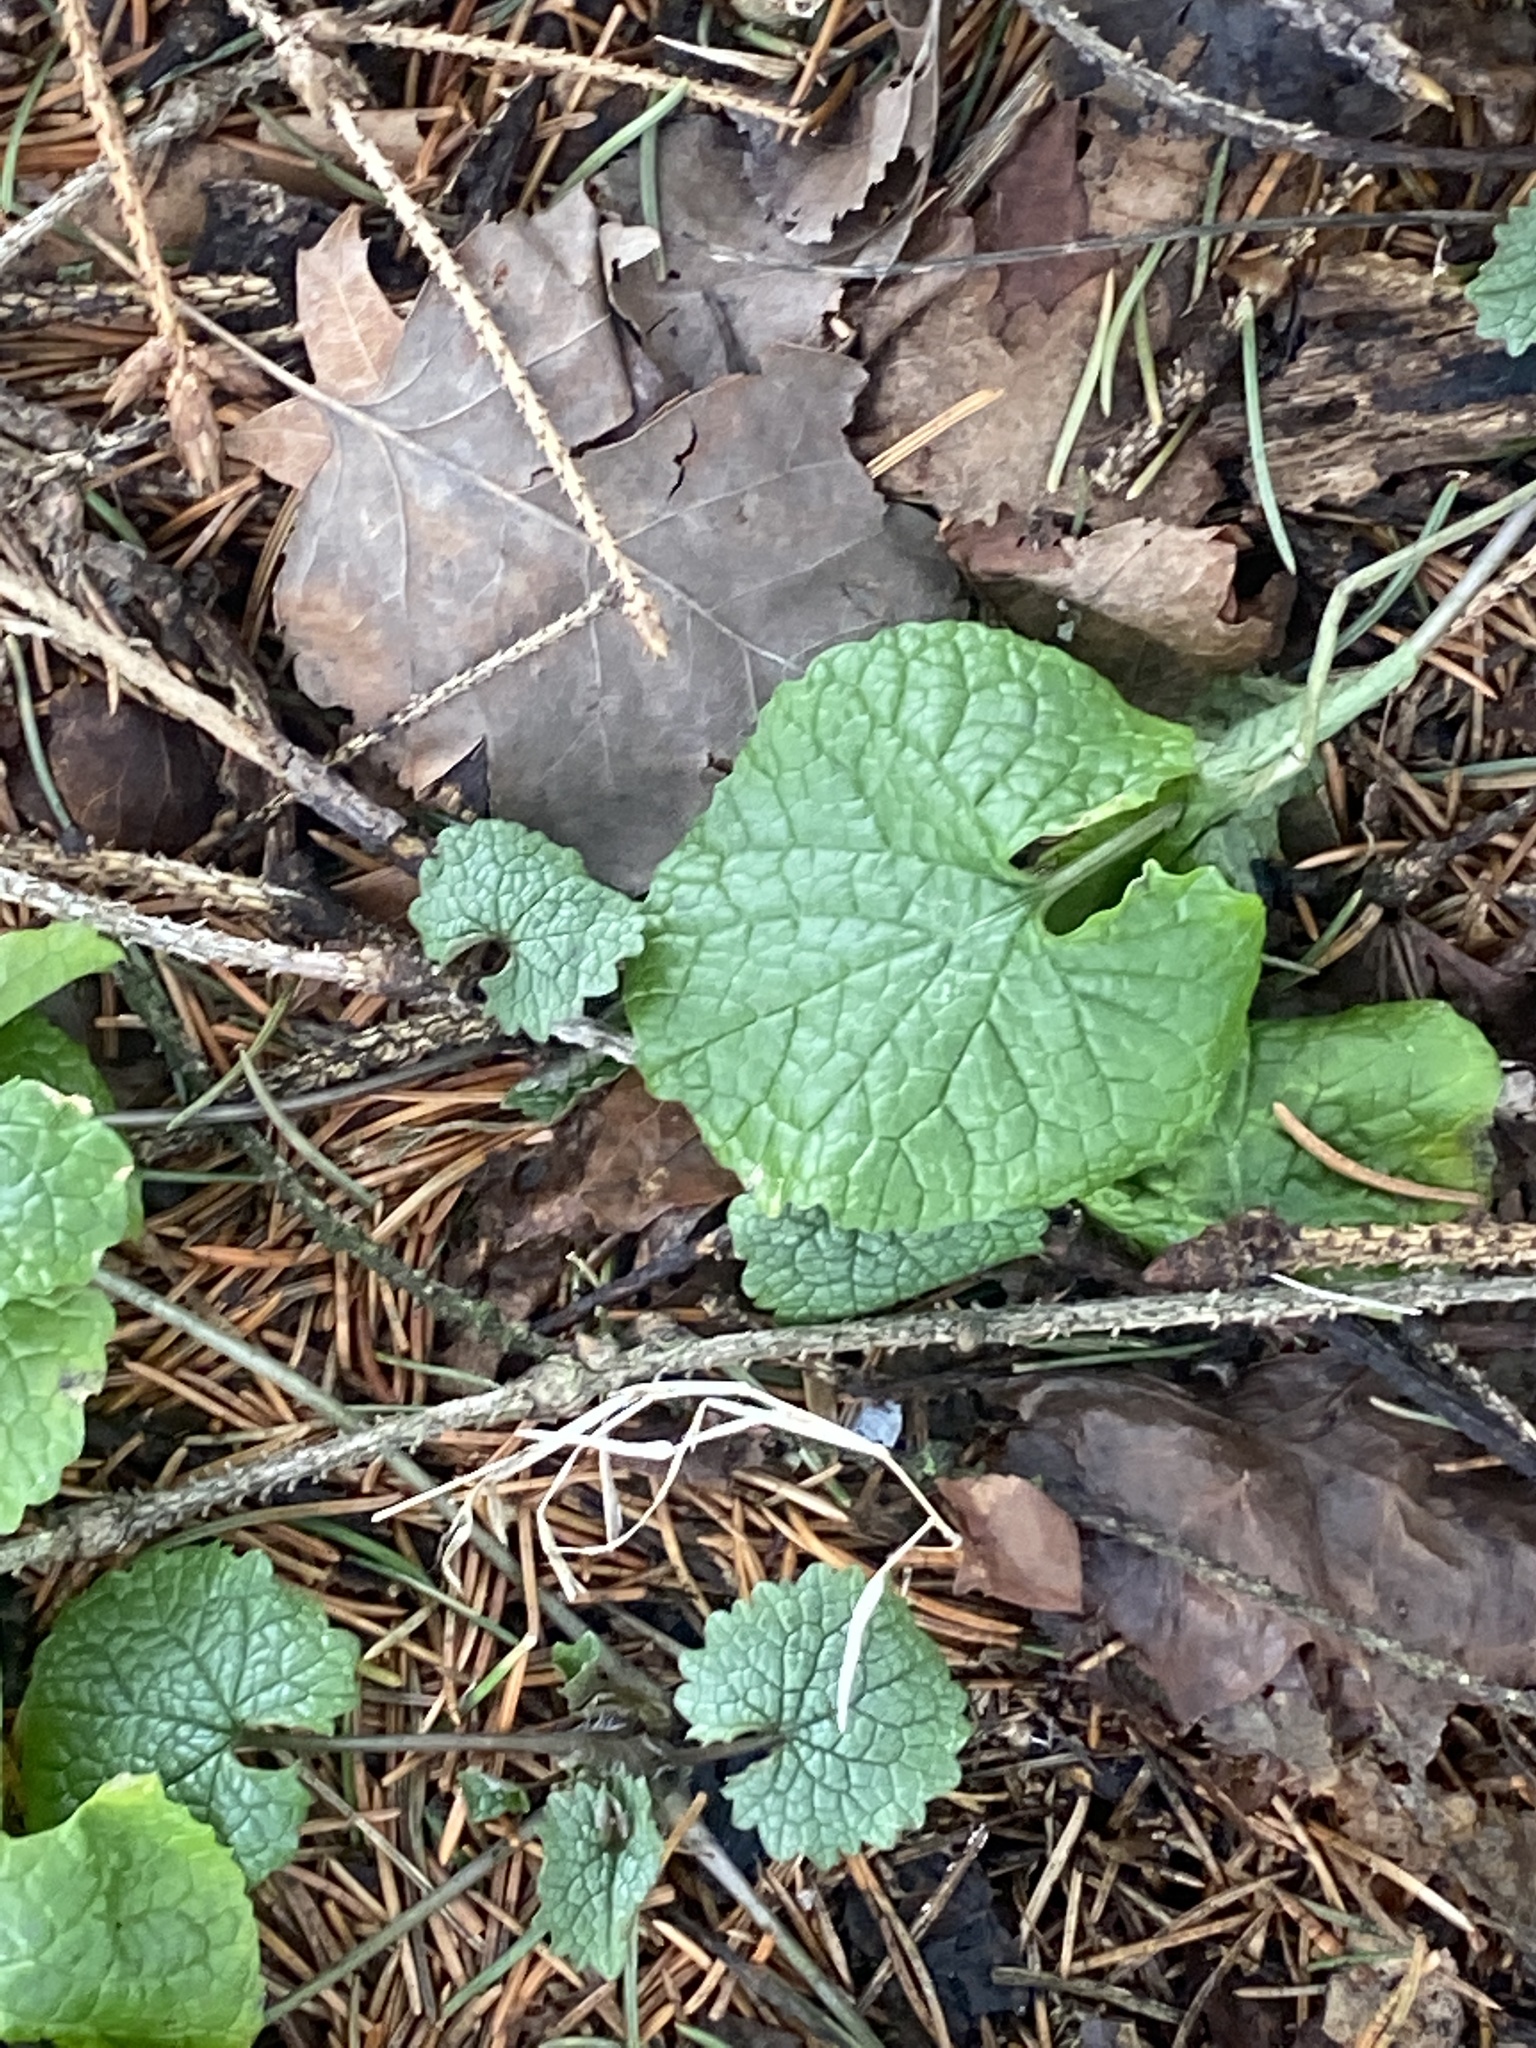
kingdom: Plantae
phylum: Tracheophyta
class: Magnoliopsida
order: Brassicales
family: Brassicaceae
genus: Alliaria
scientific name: Alliaria petiolata
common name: Garlic mustard
